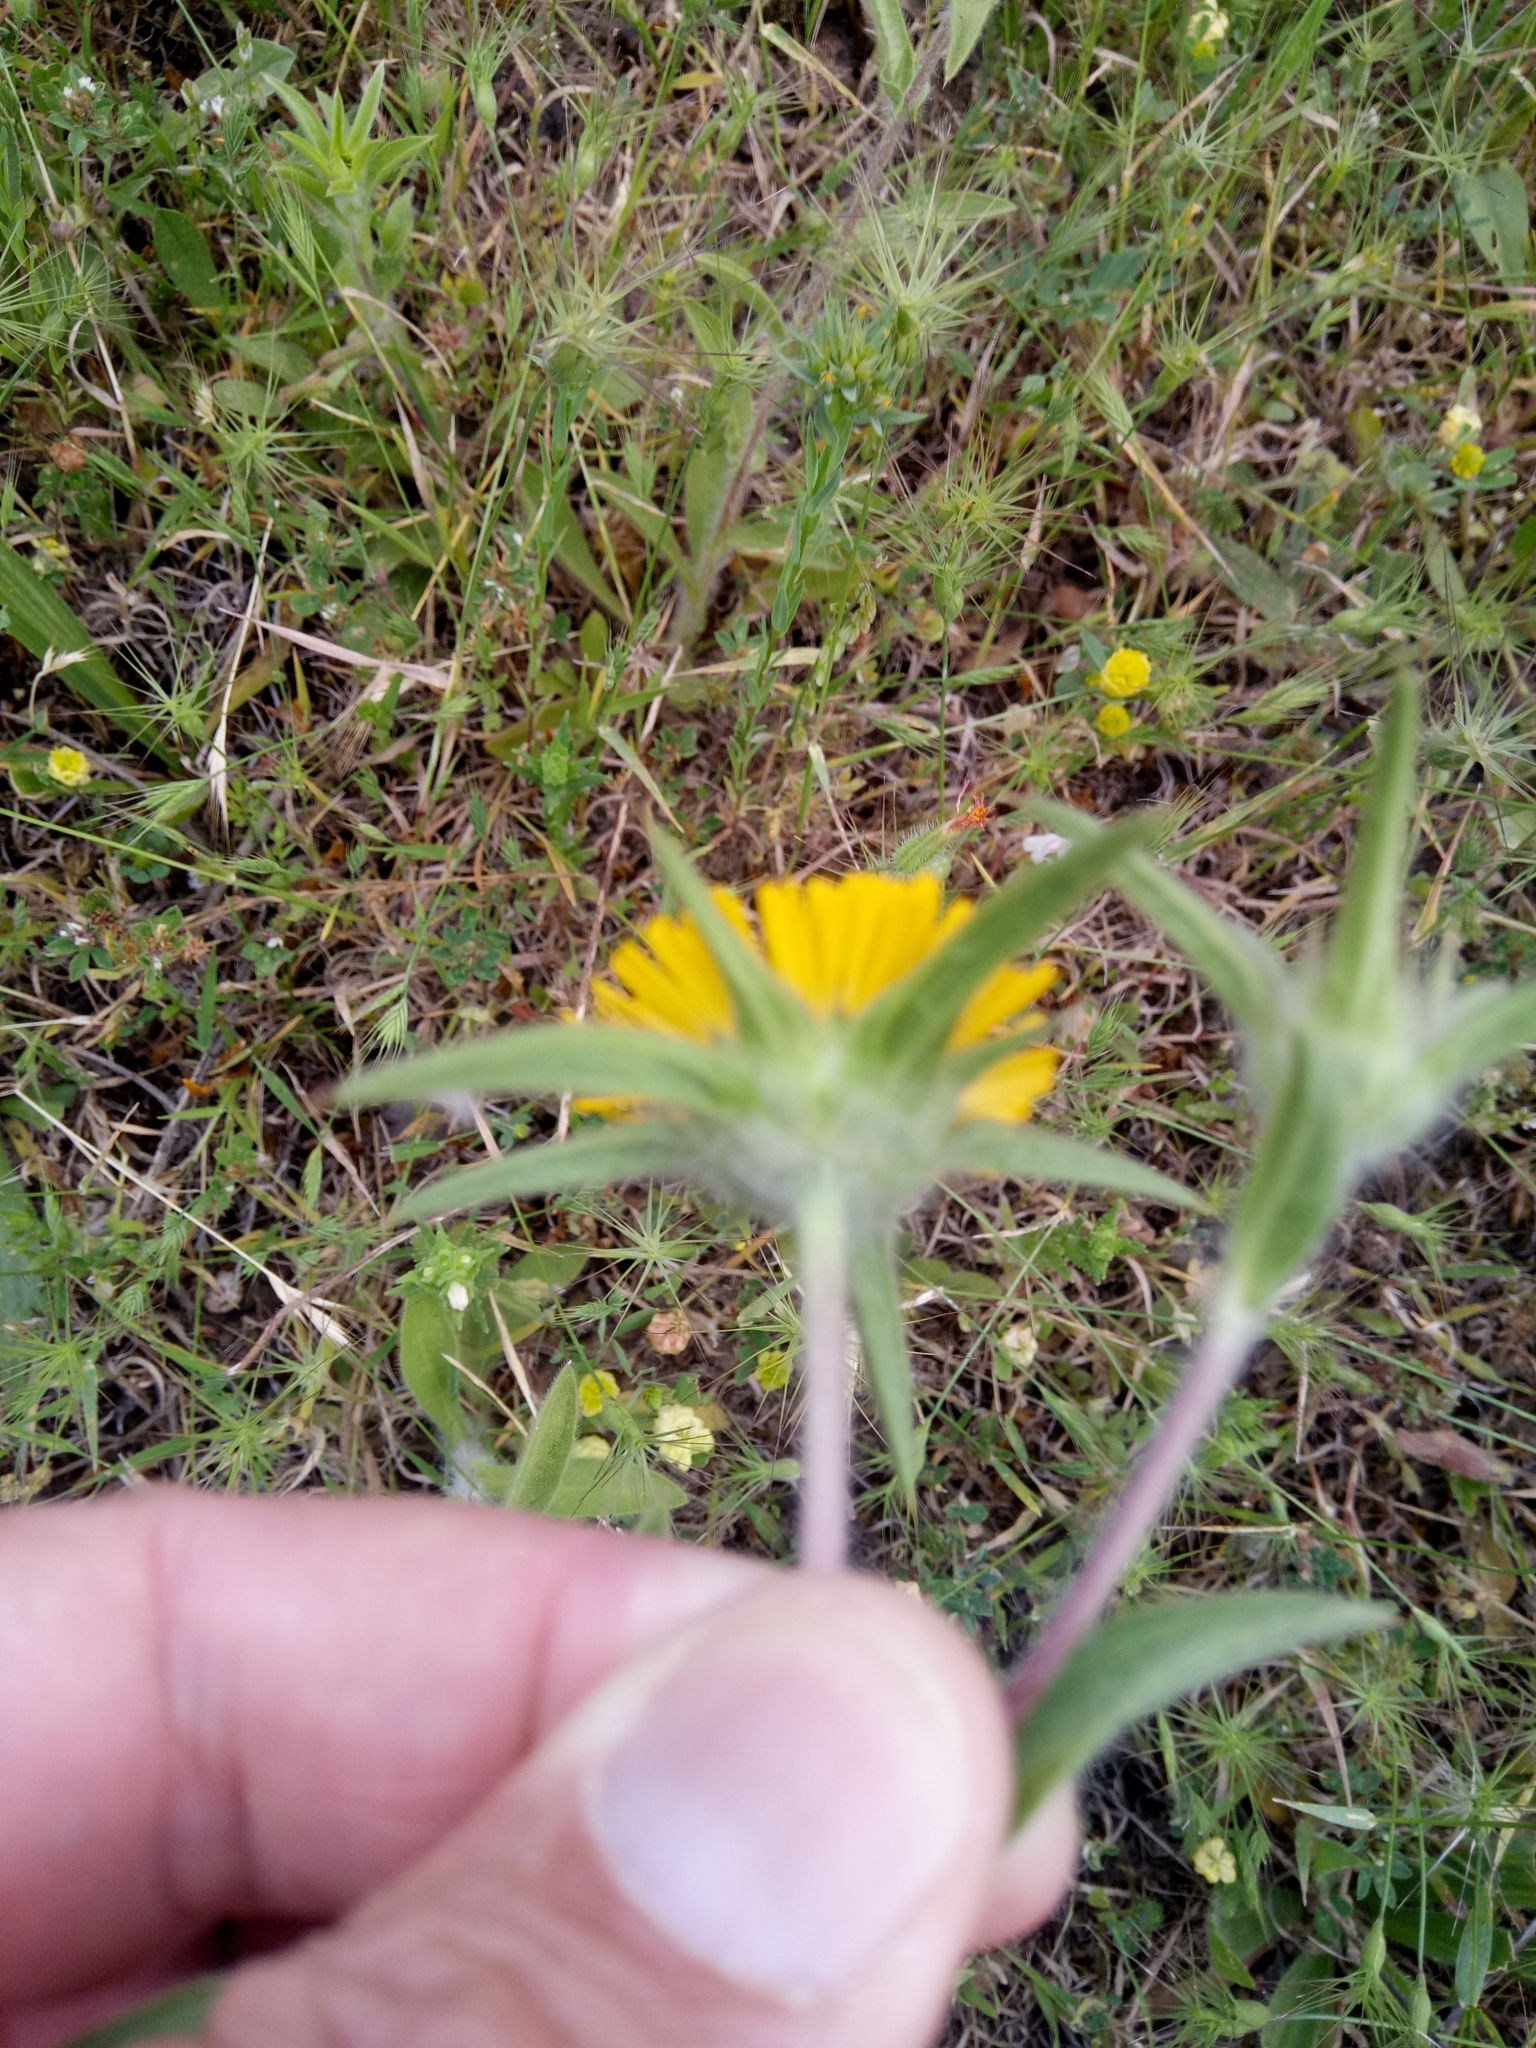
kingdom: Plantae
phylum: Tracheophyta
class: Magnoliopsida
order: Asterales
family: Asteraceae
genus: Pallenis
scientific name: Pallenis spinosa
